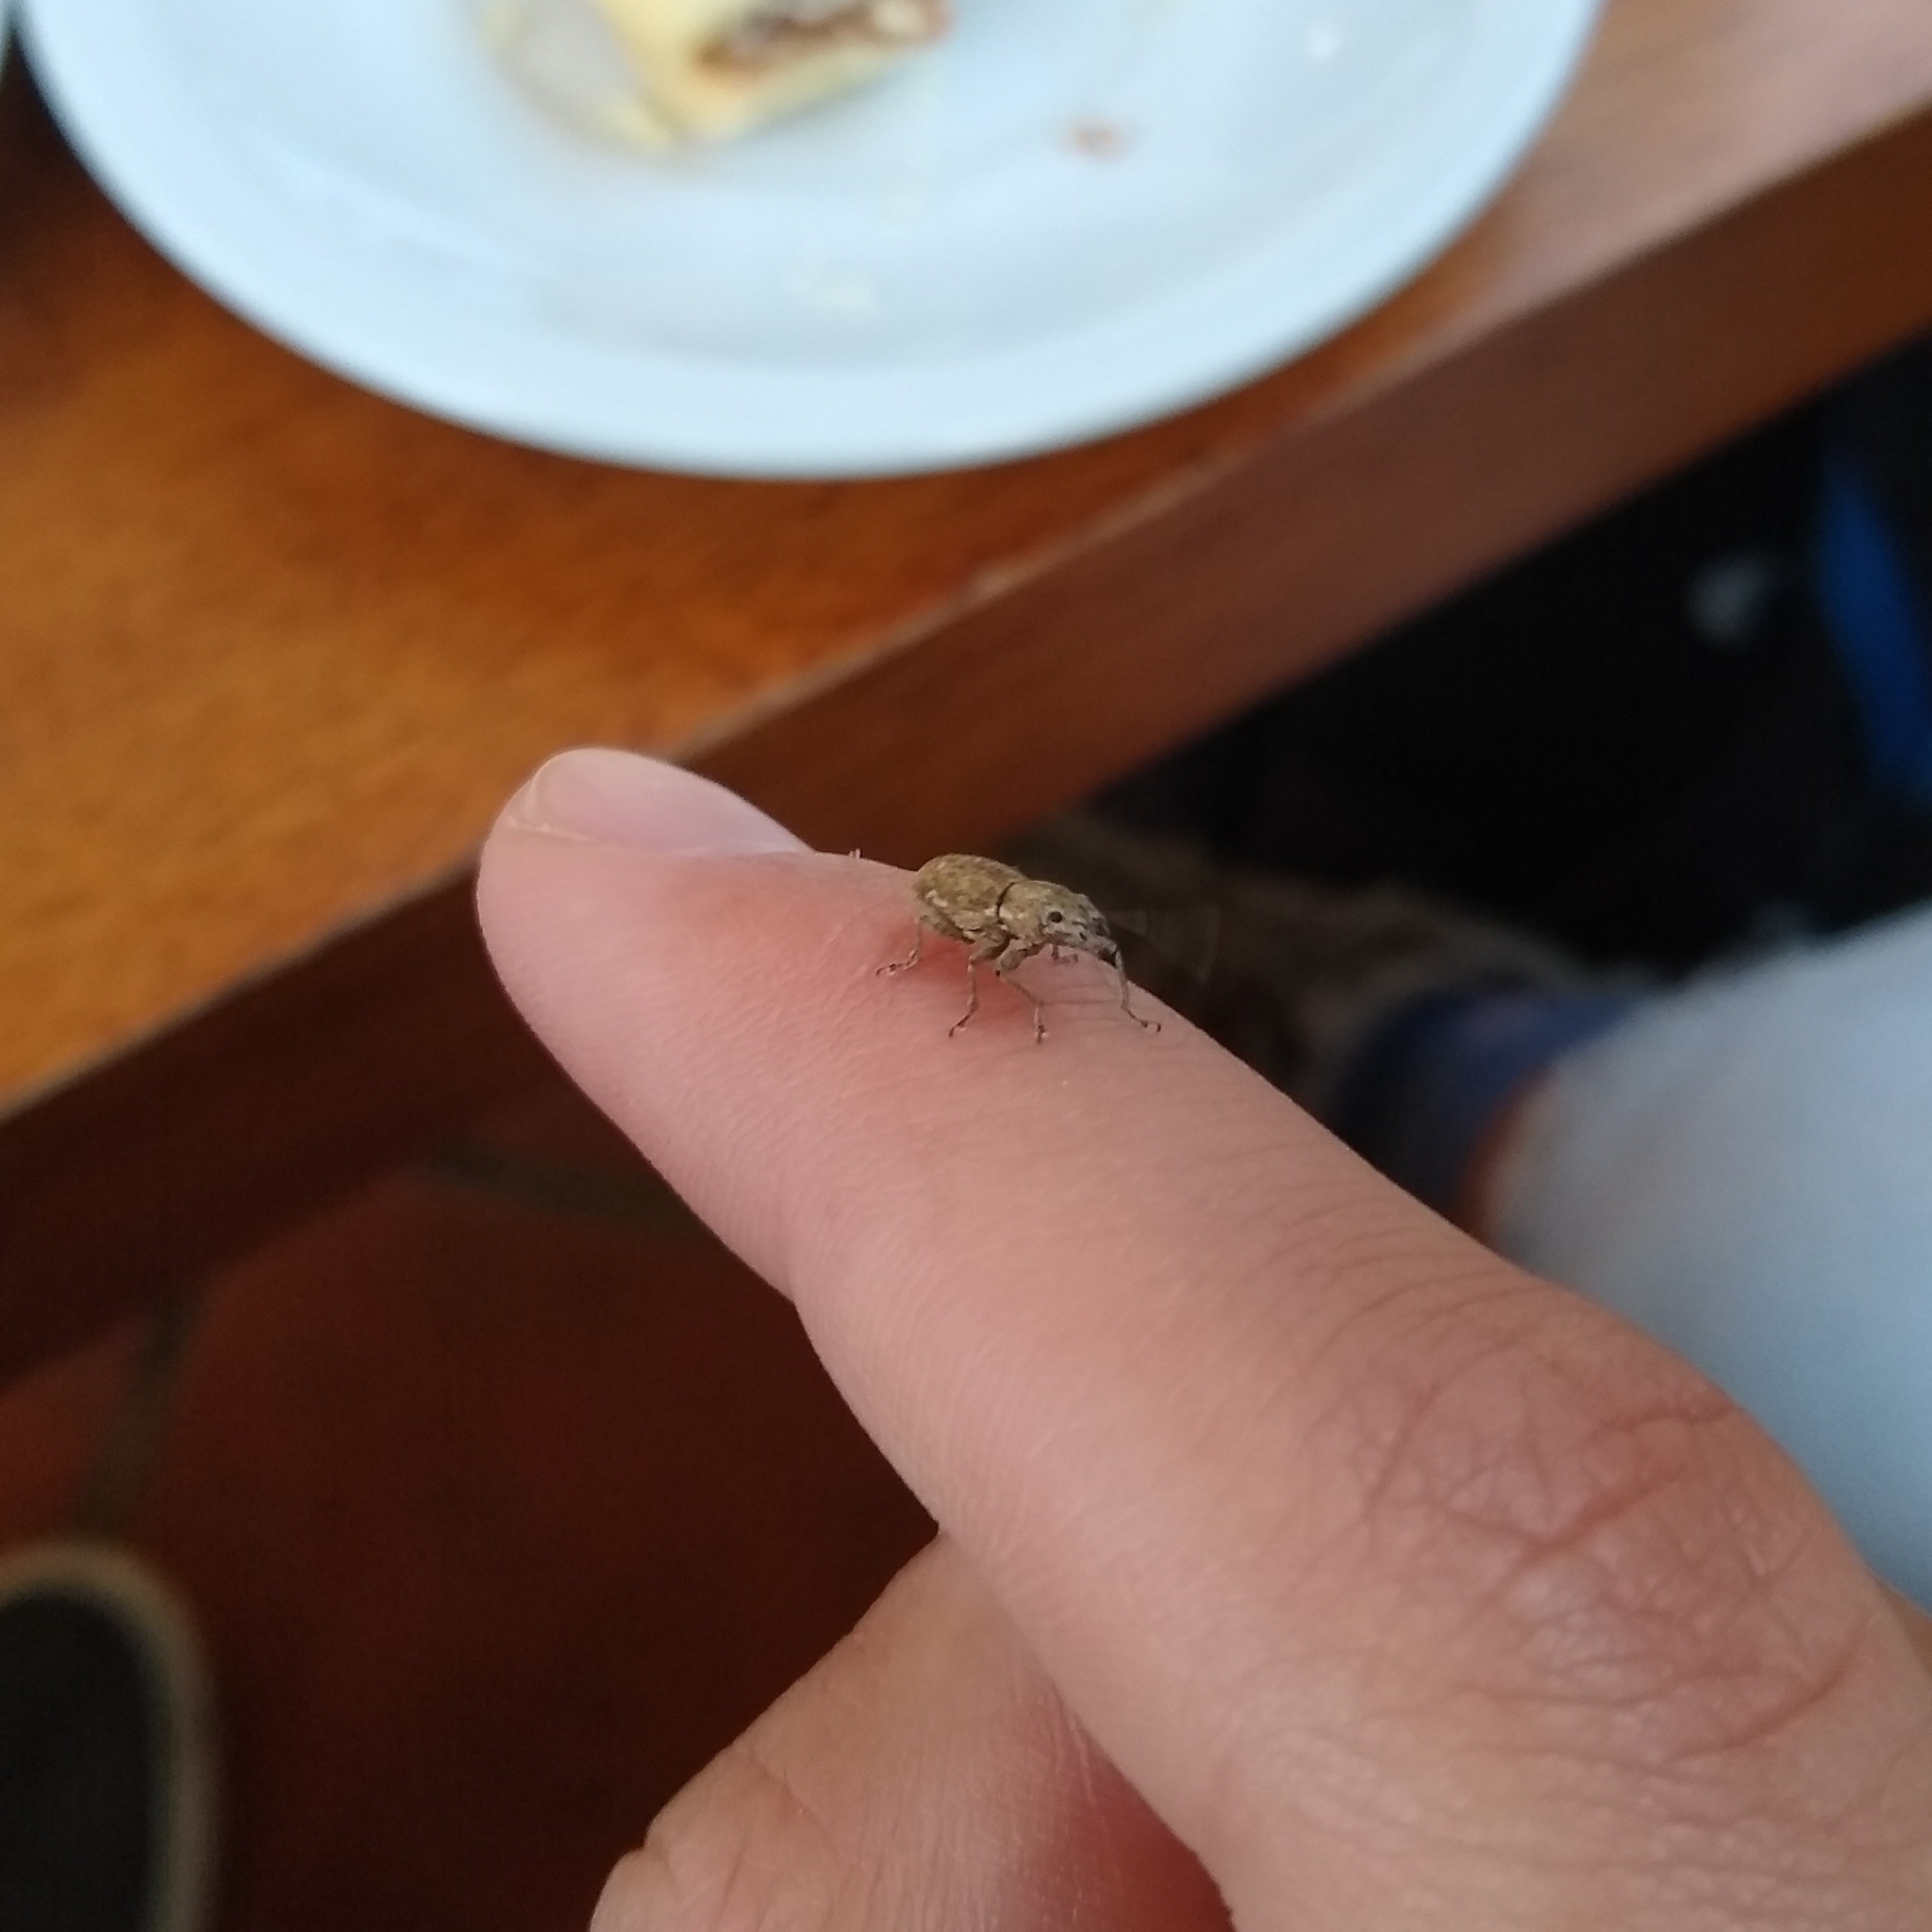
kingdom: Animalia
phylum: Arthropoda
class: Insecta
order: Coleoptera
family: Curculionidae
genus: Naupactus
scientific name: Naupactus cervinus
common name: Fuller rose beetle
